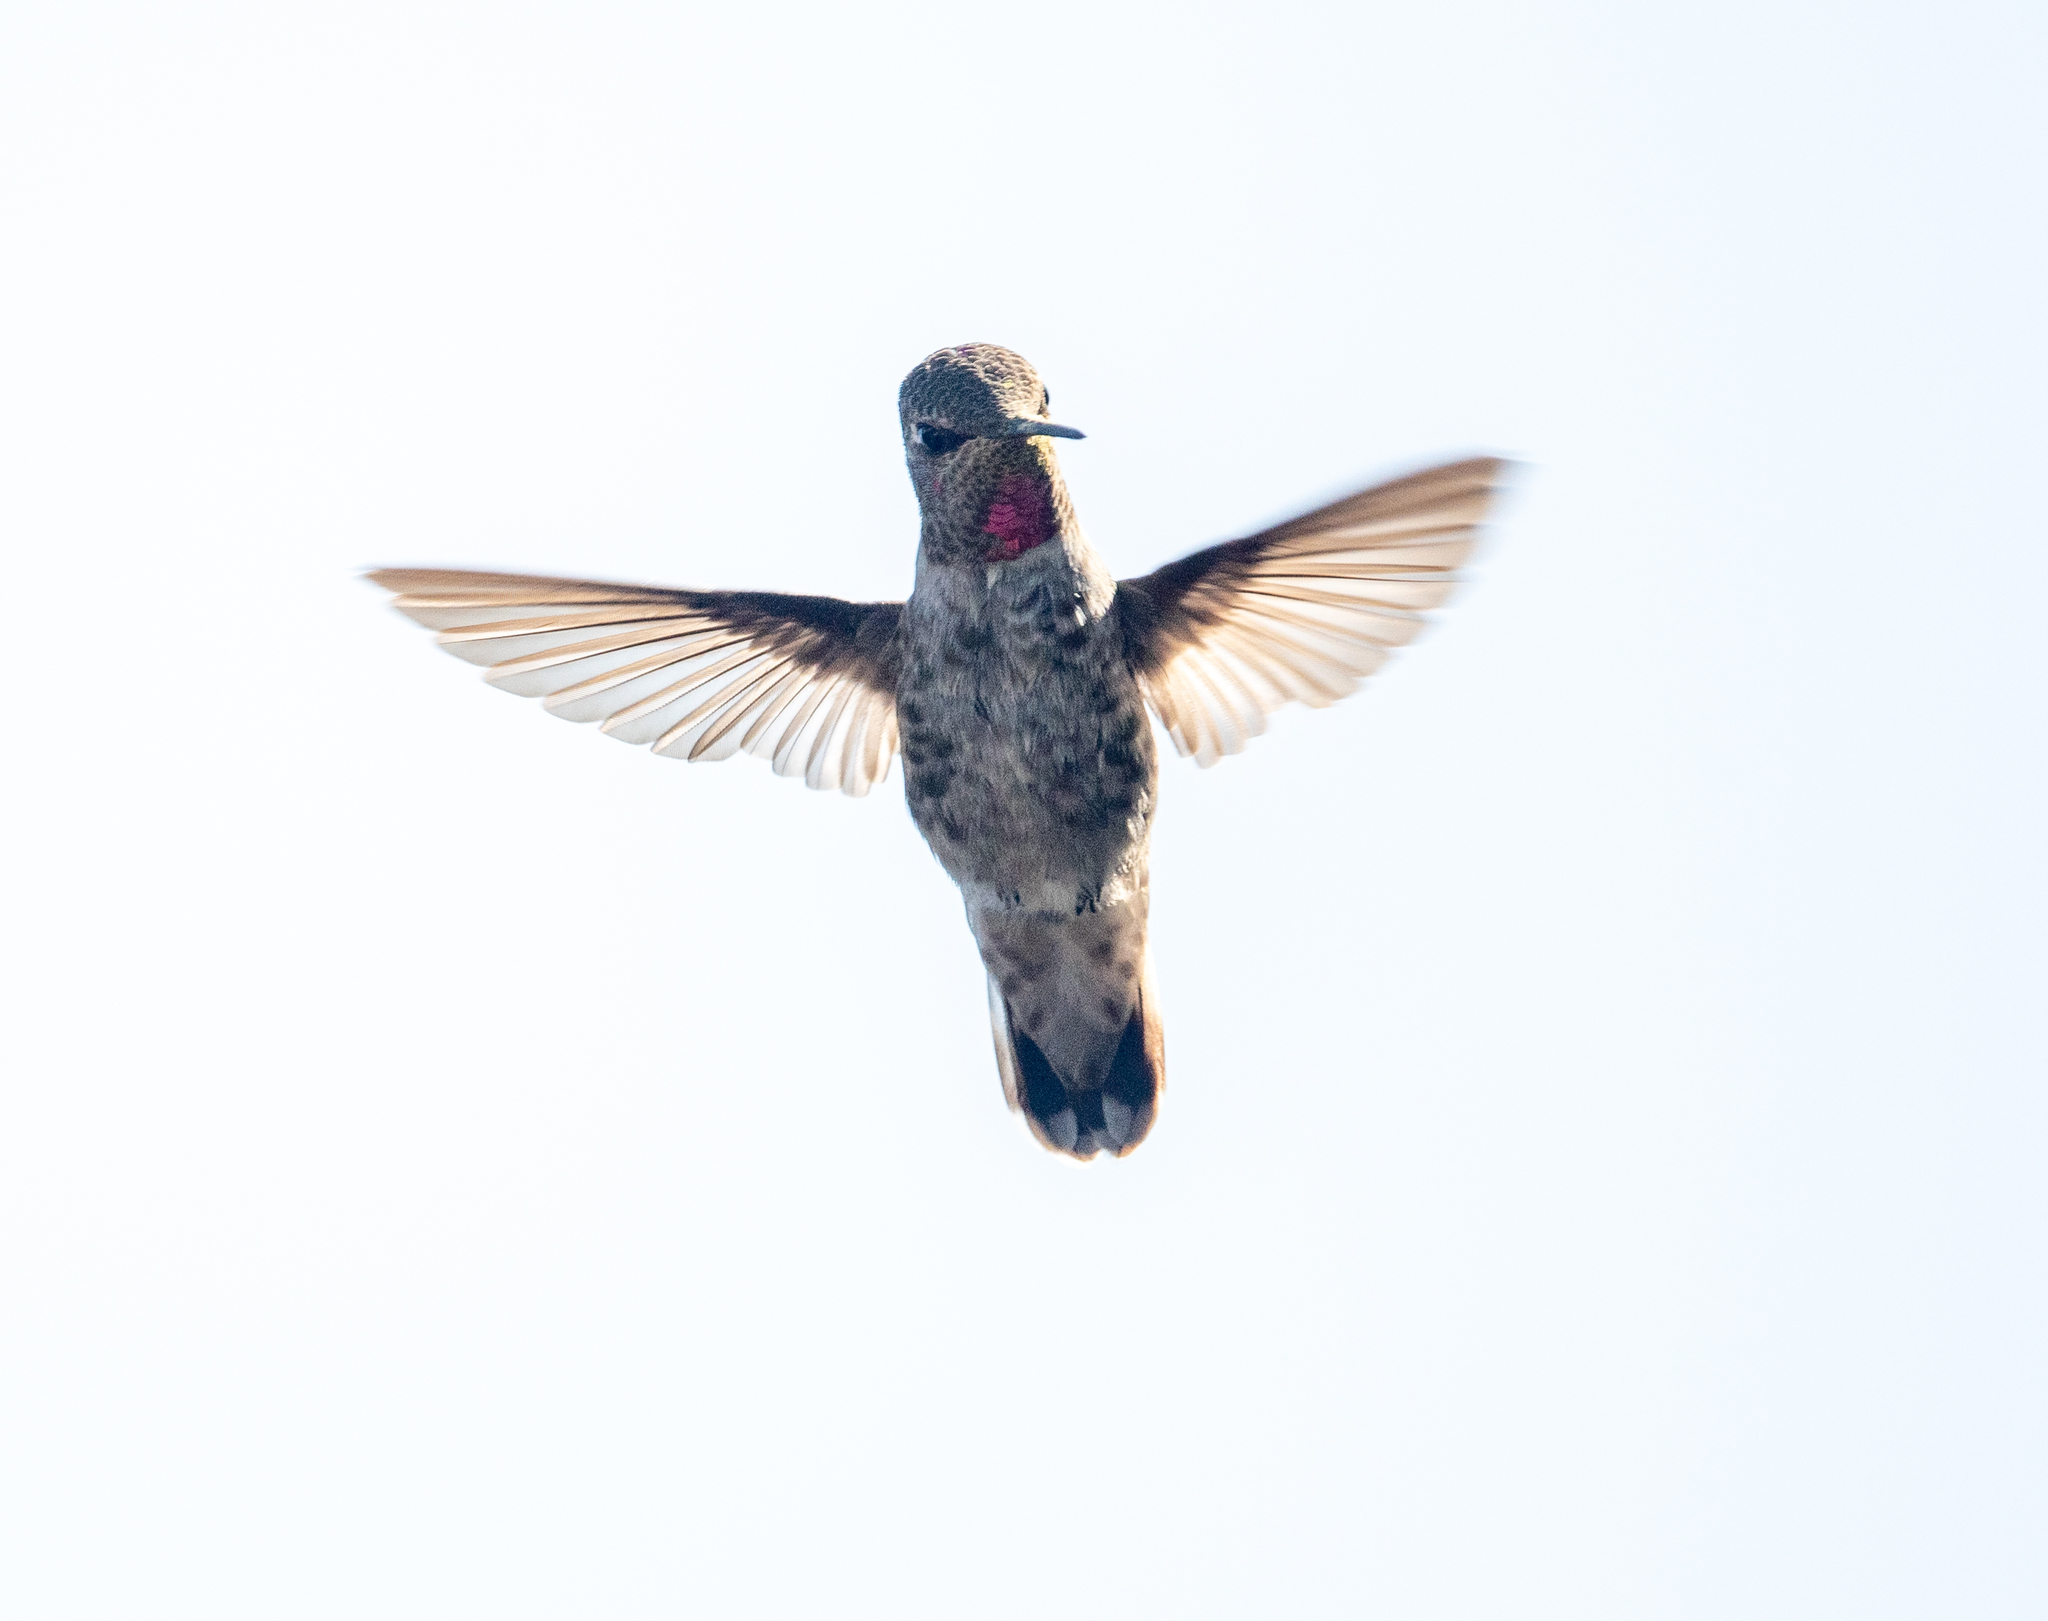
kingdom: Animalia
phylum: Chordata
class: Aves
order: Apodiformes
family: Trochilidae
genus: Calypte
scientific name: Calypte anna
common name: Anna's hummingbird
